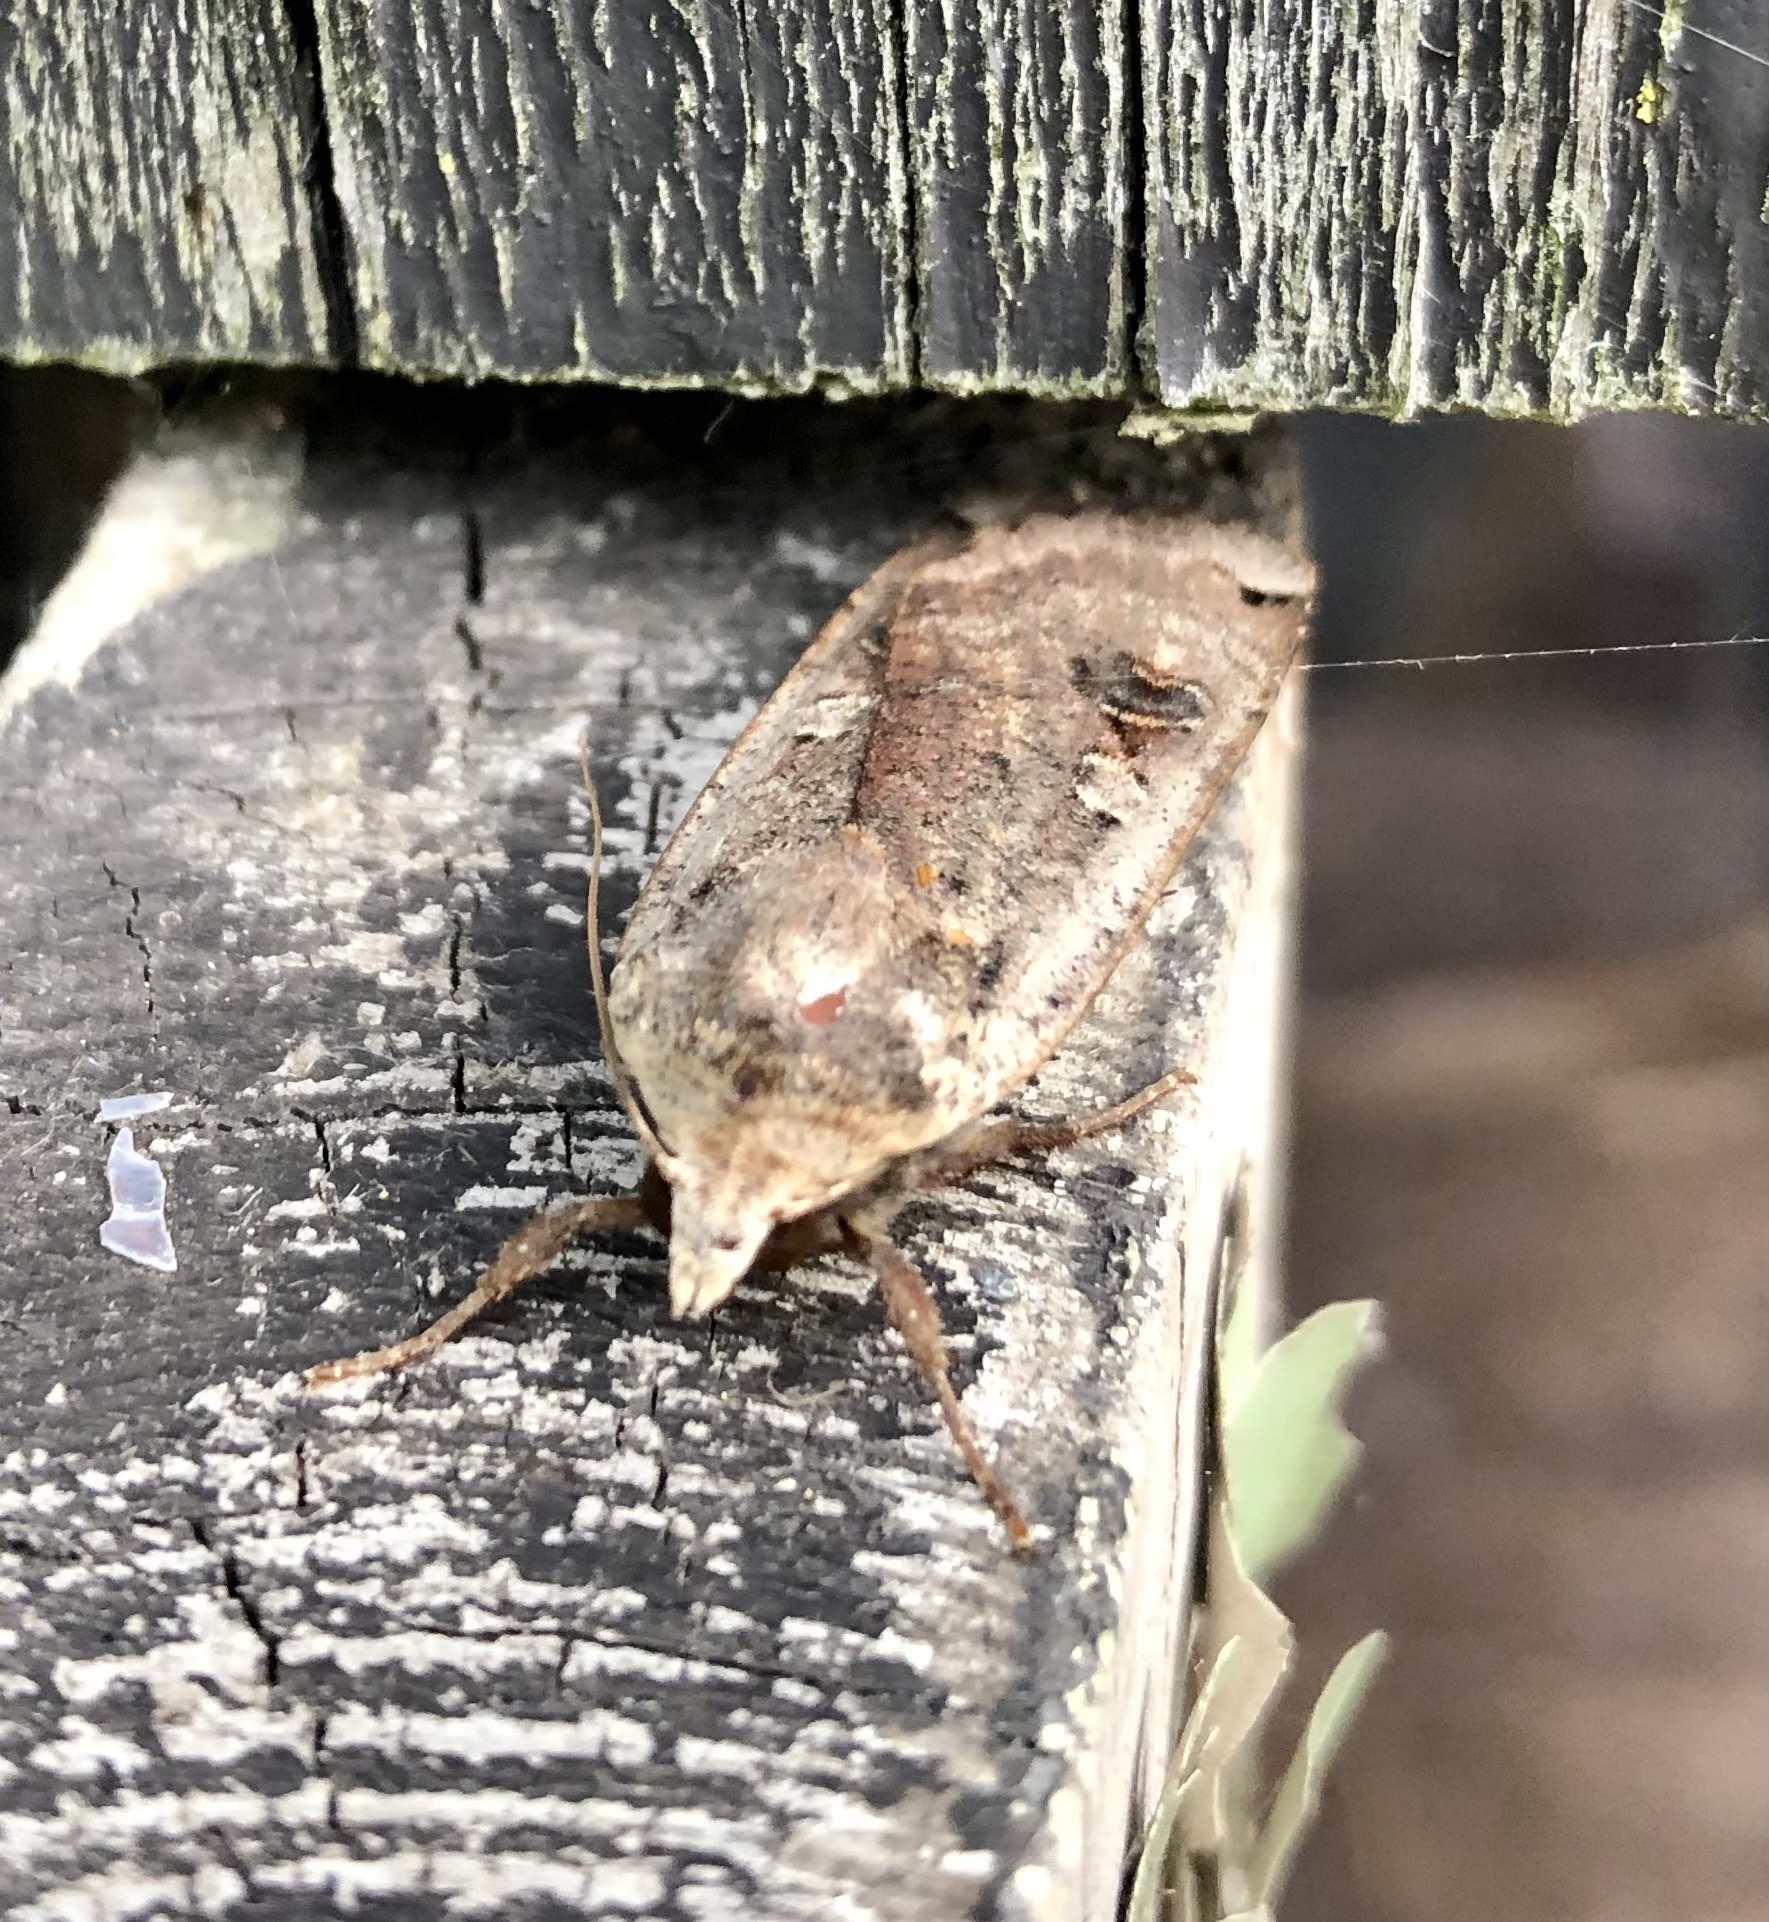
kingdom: Animalia
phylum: Arthropoda
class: Insecta
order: Lepidoptera
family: Noctuidae
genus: Noctua
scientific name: Noctua pronuba
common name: Large yellow underwing
